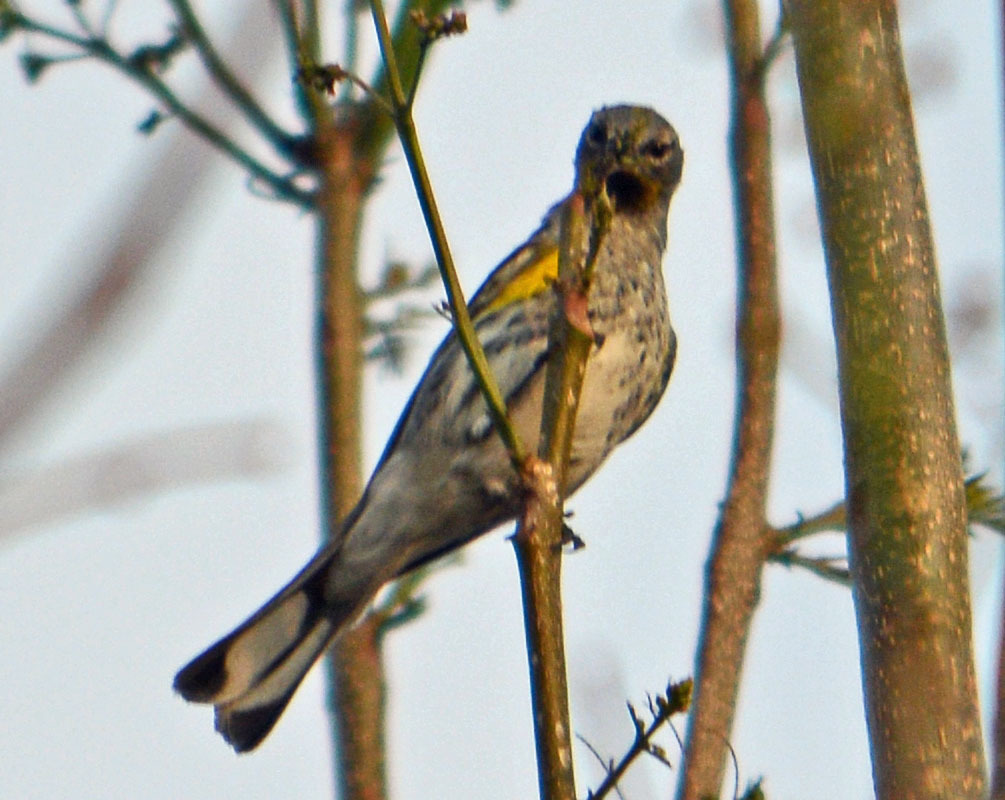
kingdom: Animalia
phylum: Chordata
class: Aves
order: Passeriformes
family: Parulidae
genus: Setophaga
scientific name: Setophaga auduboni
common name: Audubon's warbler
